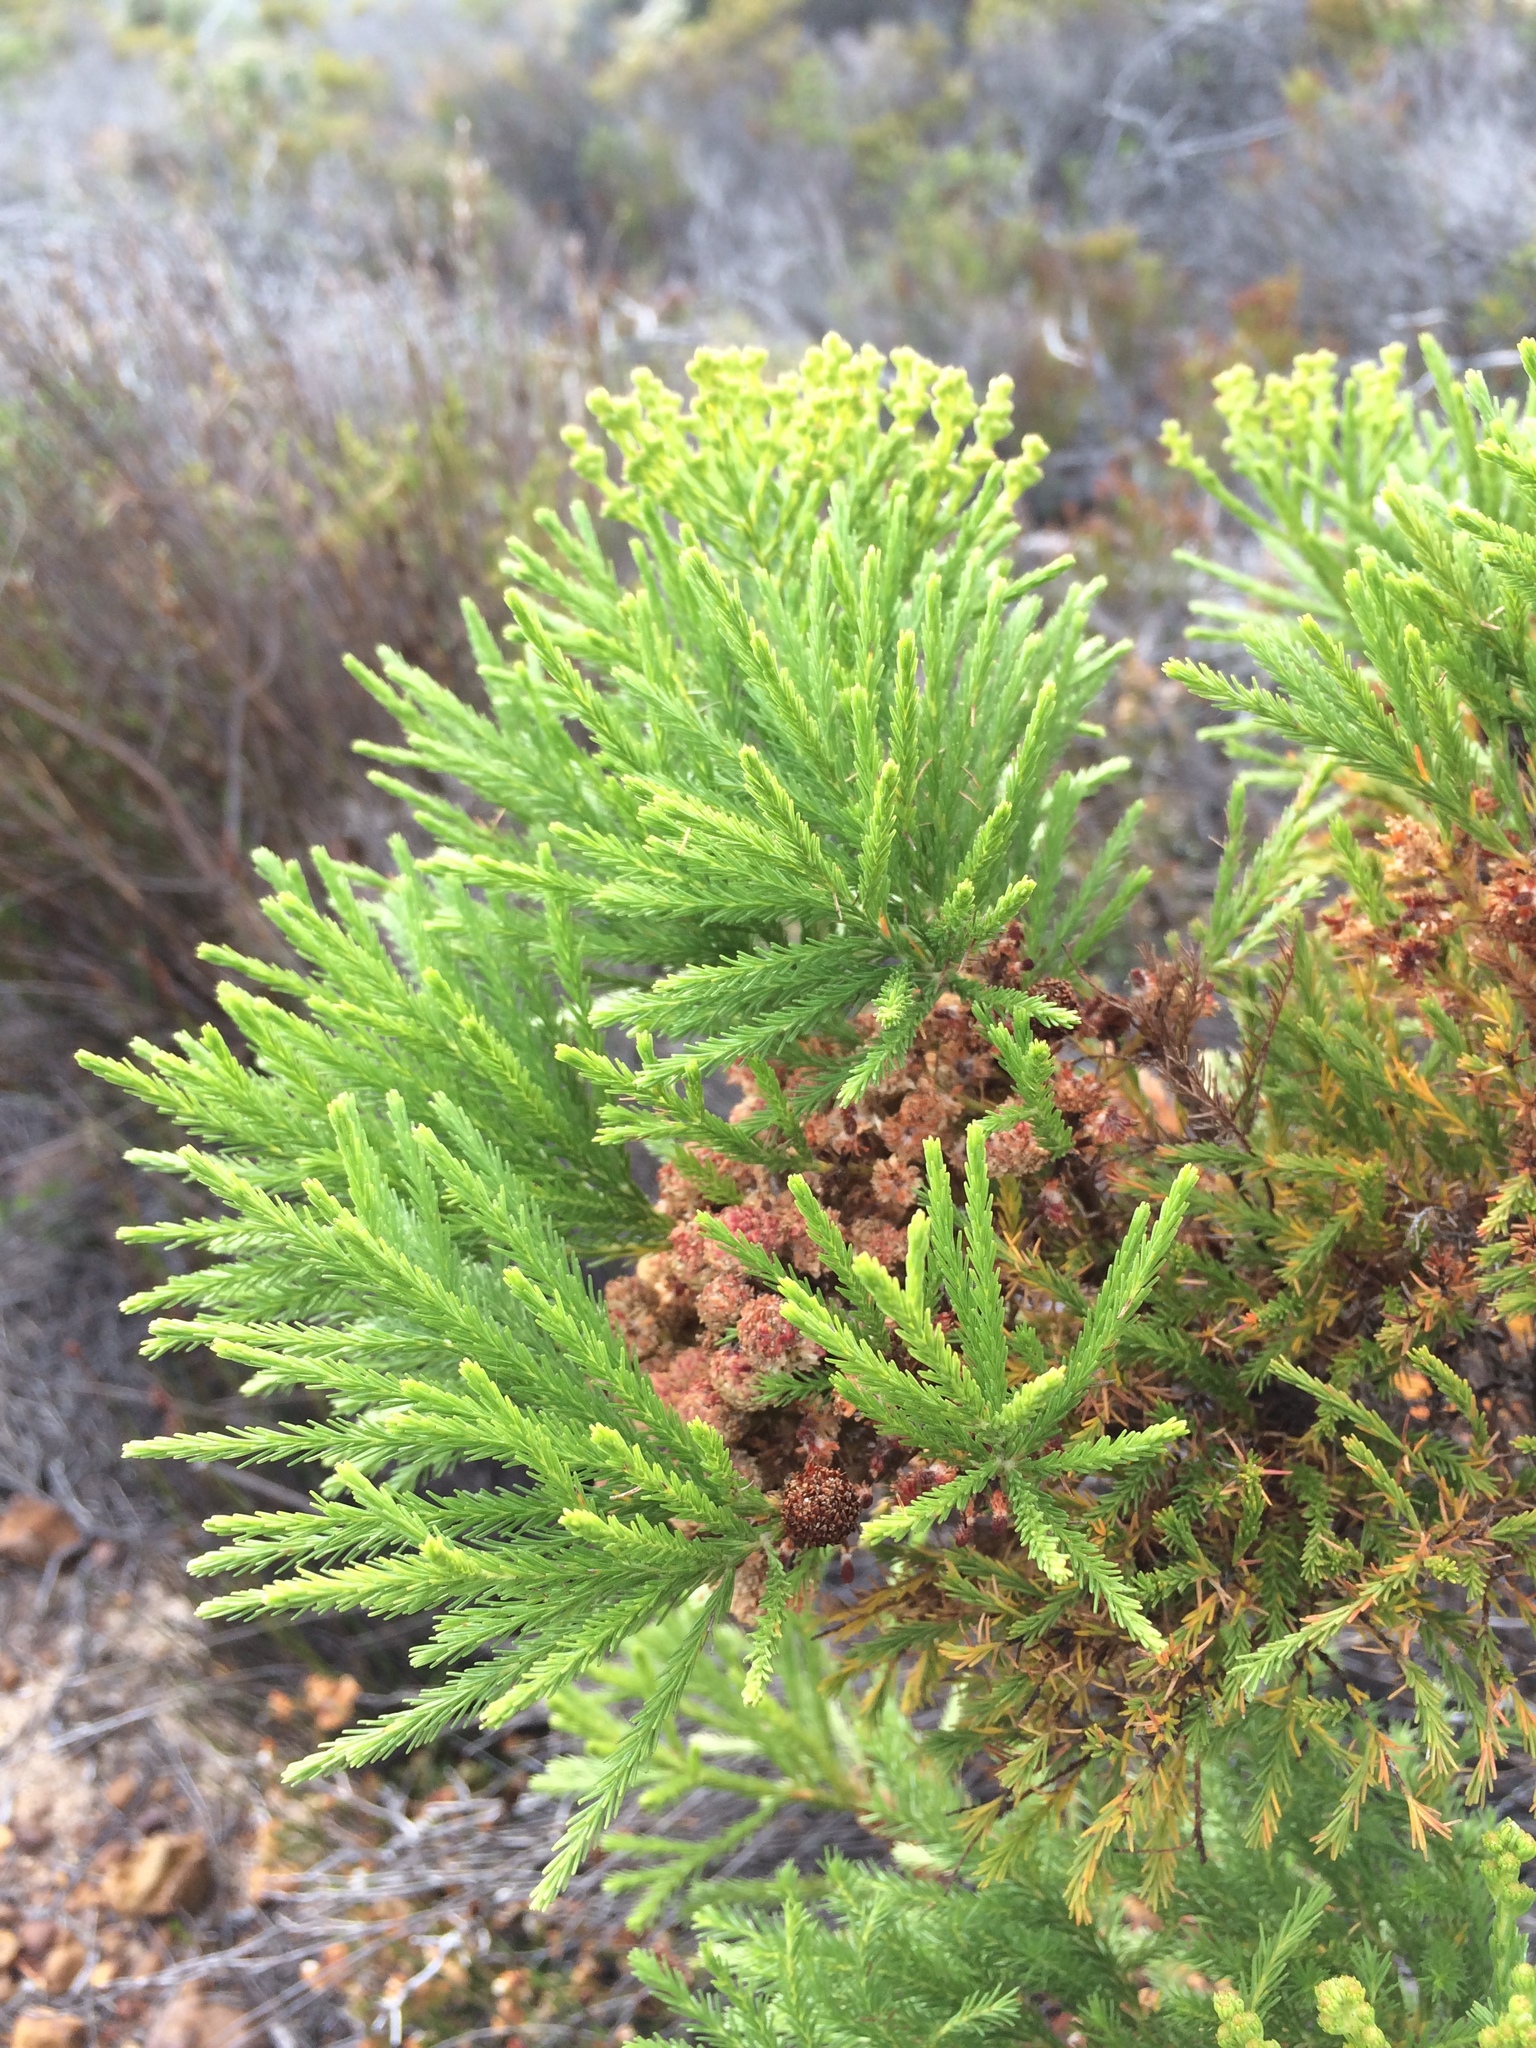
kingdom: Plantae
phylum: Tracheophyta
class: Magnoliopsida
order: Bruniales
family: Bruniaceae
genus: Berzelia
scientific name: Berzelia lanuginosa
